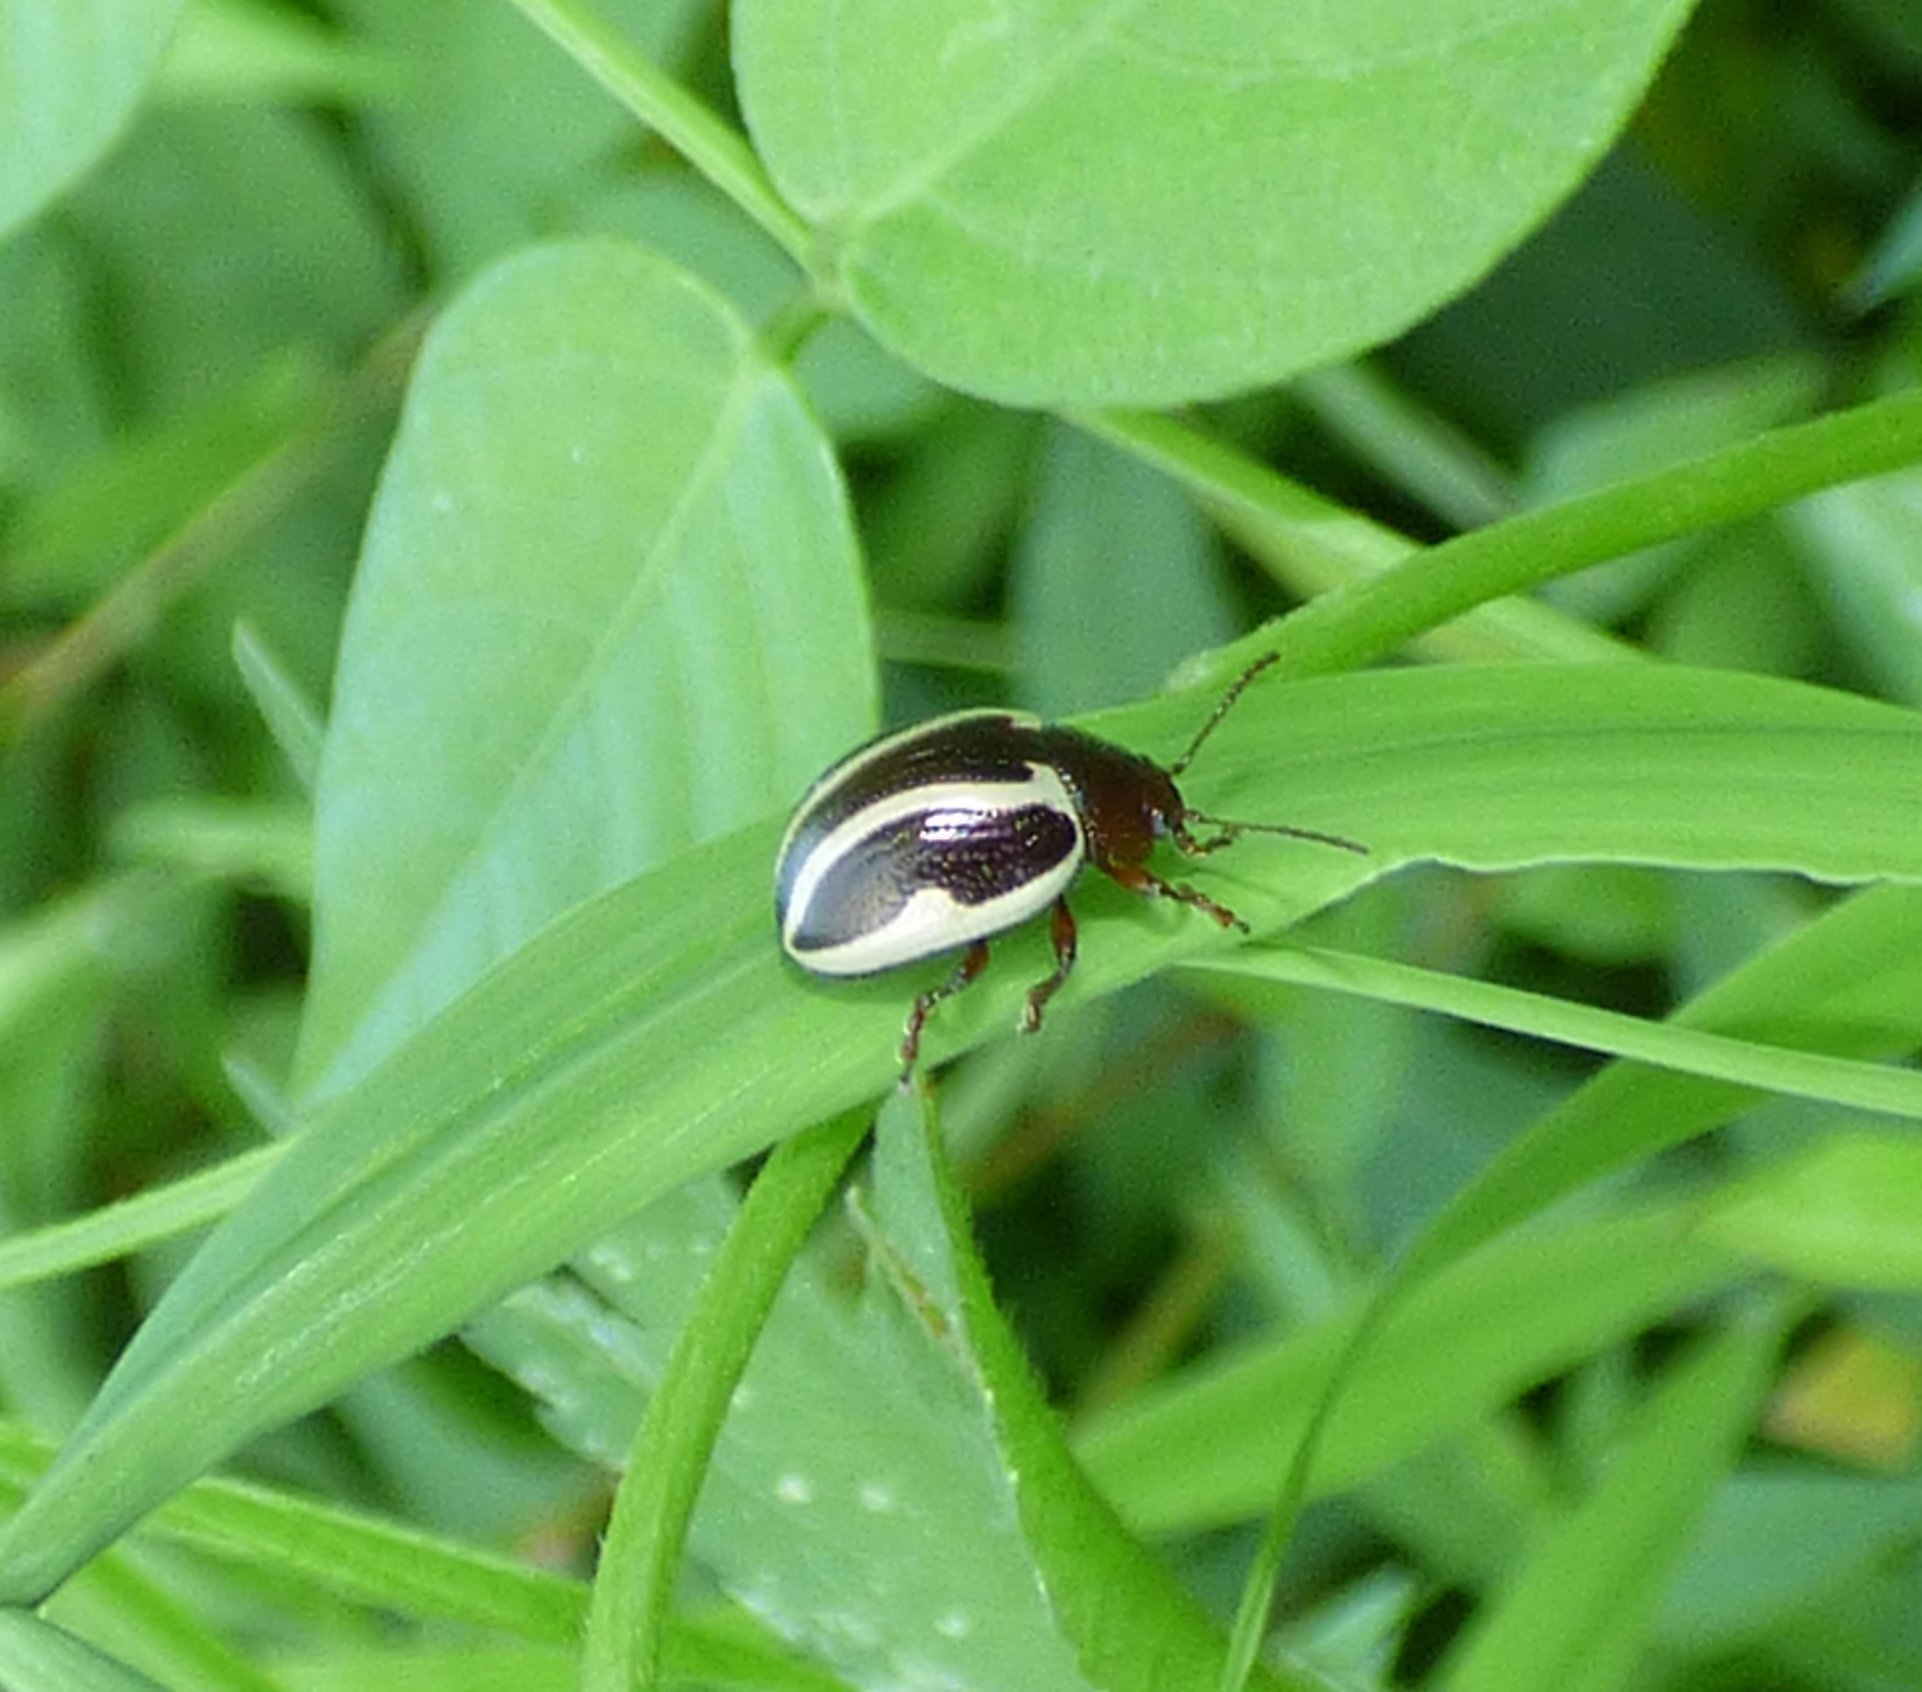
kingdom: Animalia
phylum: Arthropoda
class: Insecta
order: Coleoptera
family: Chrysomelidae
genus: Calligrapha
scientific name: Calligrapha bidenticola
